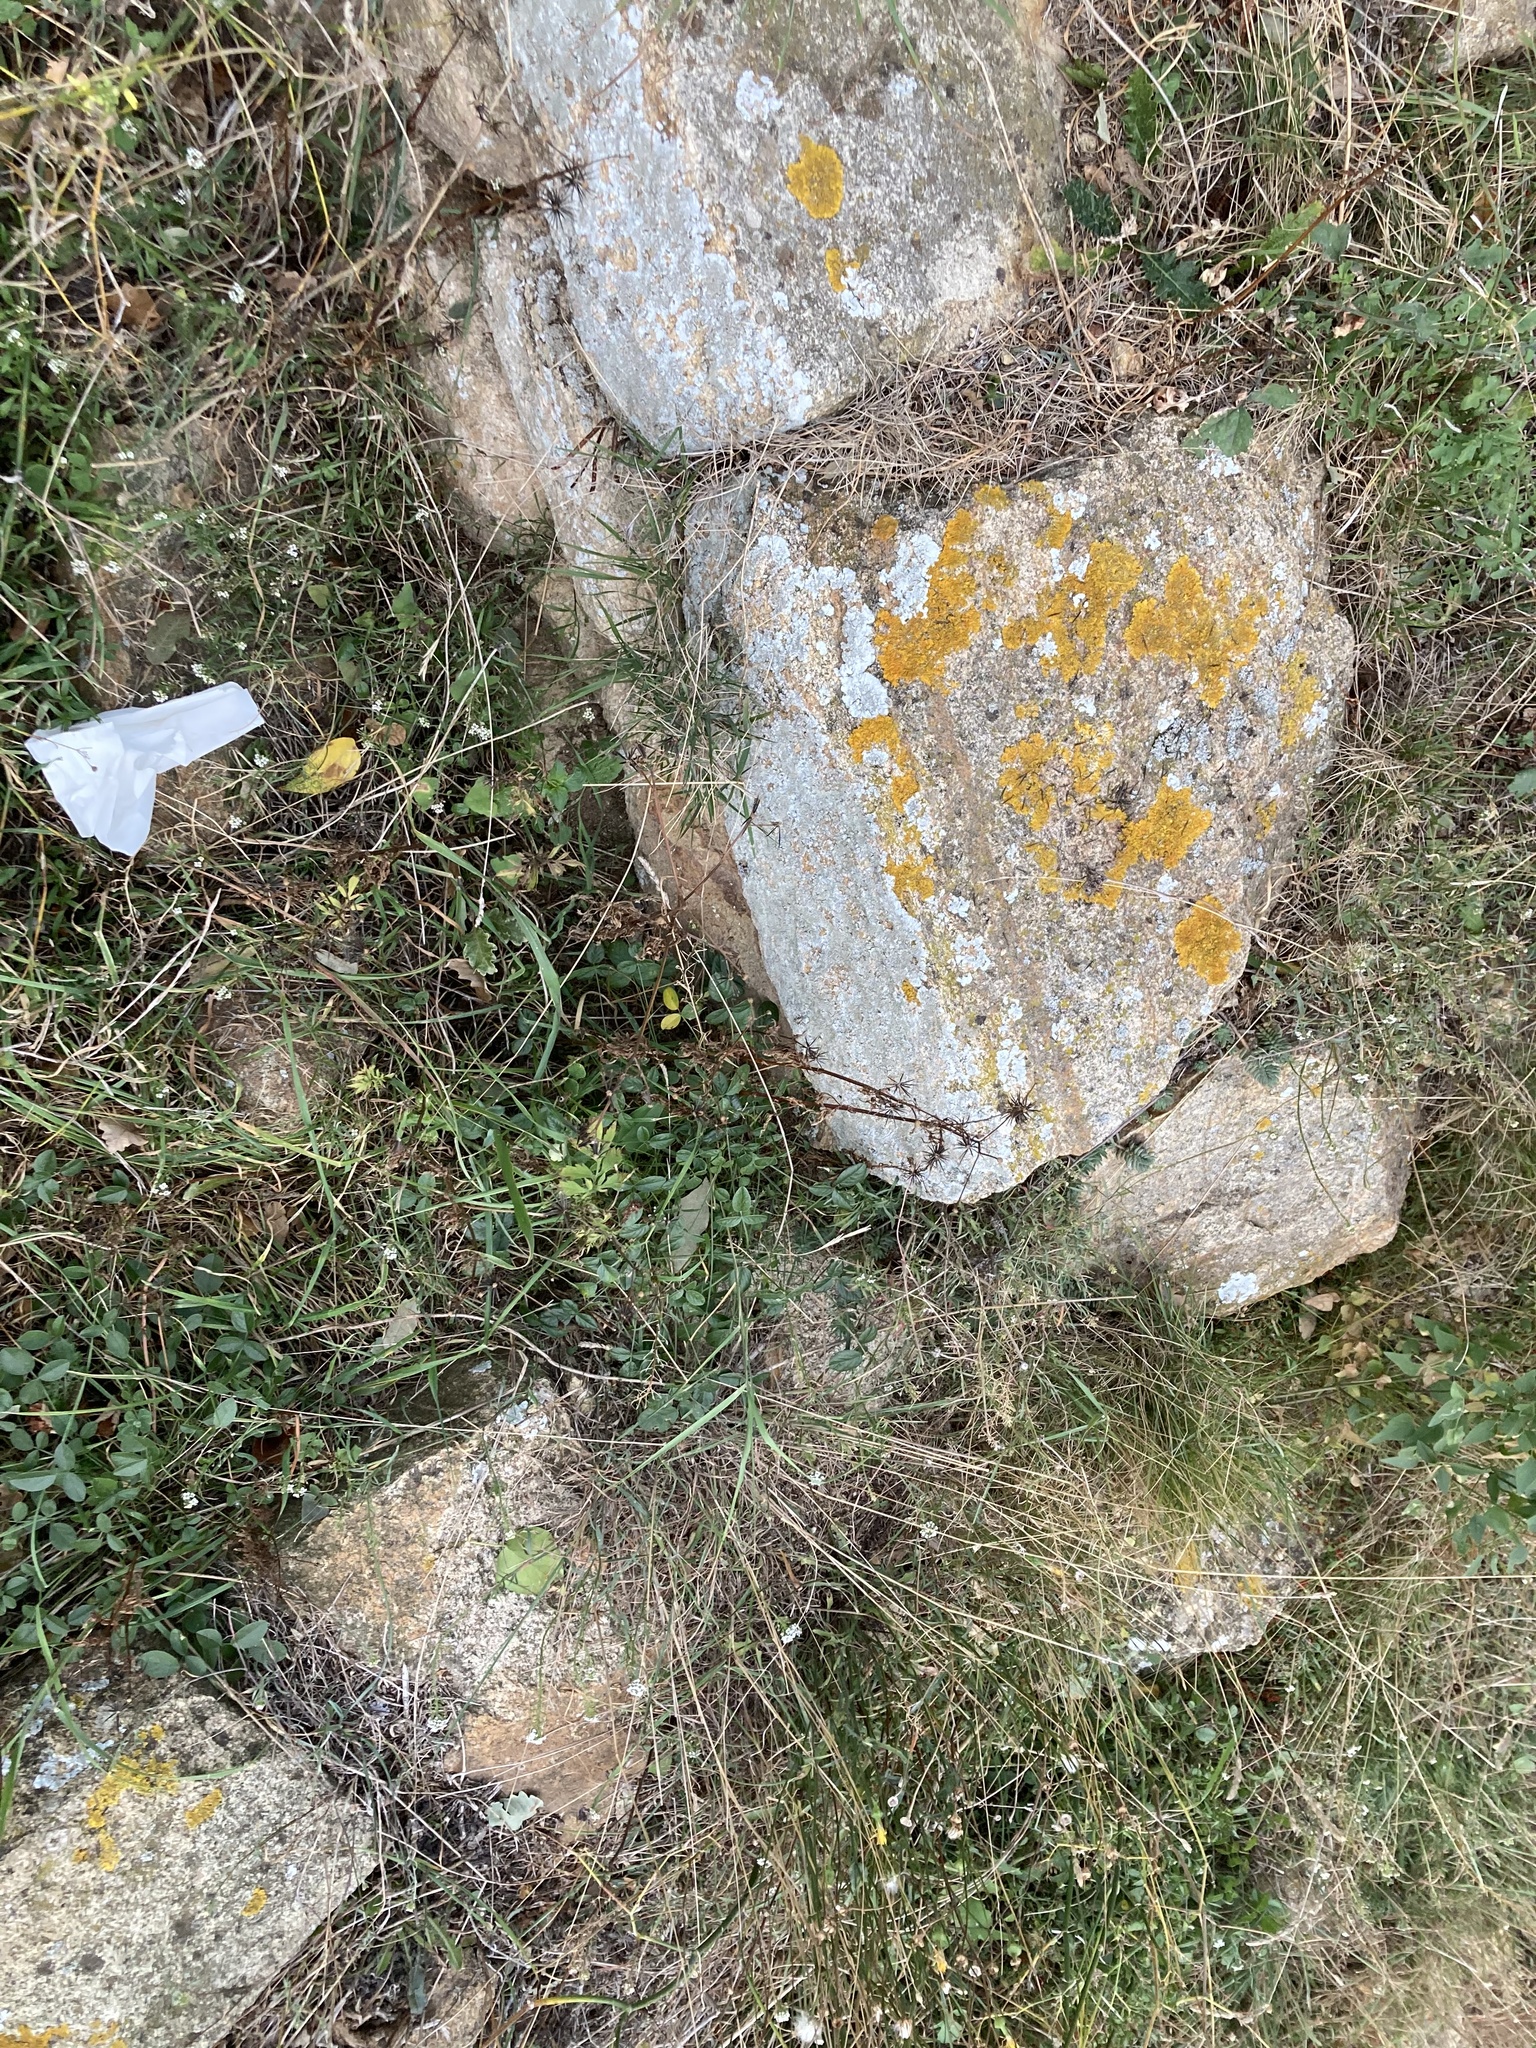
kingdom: Plantae
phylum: Tracheophyta
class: Magnoliopsida
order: Asterales
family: Asteraceae
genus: Bidens
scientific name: Bidens subalternans
